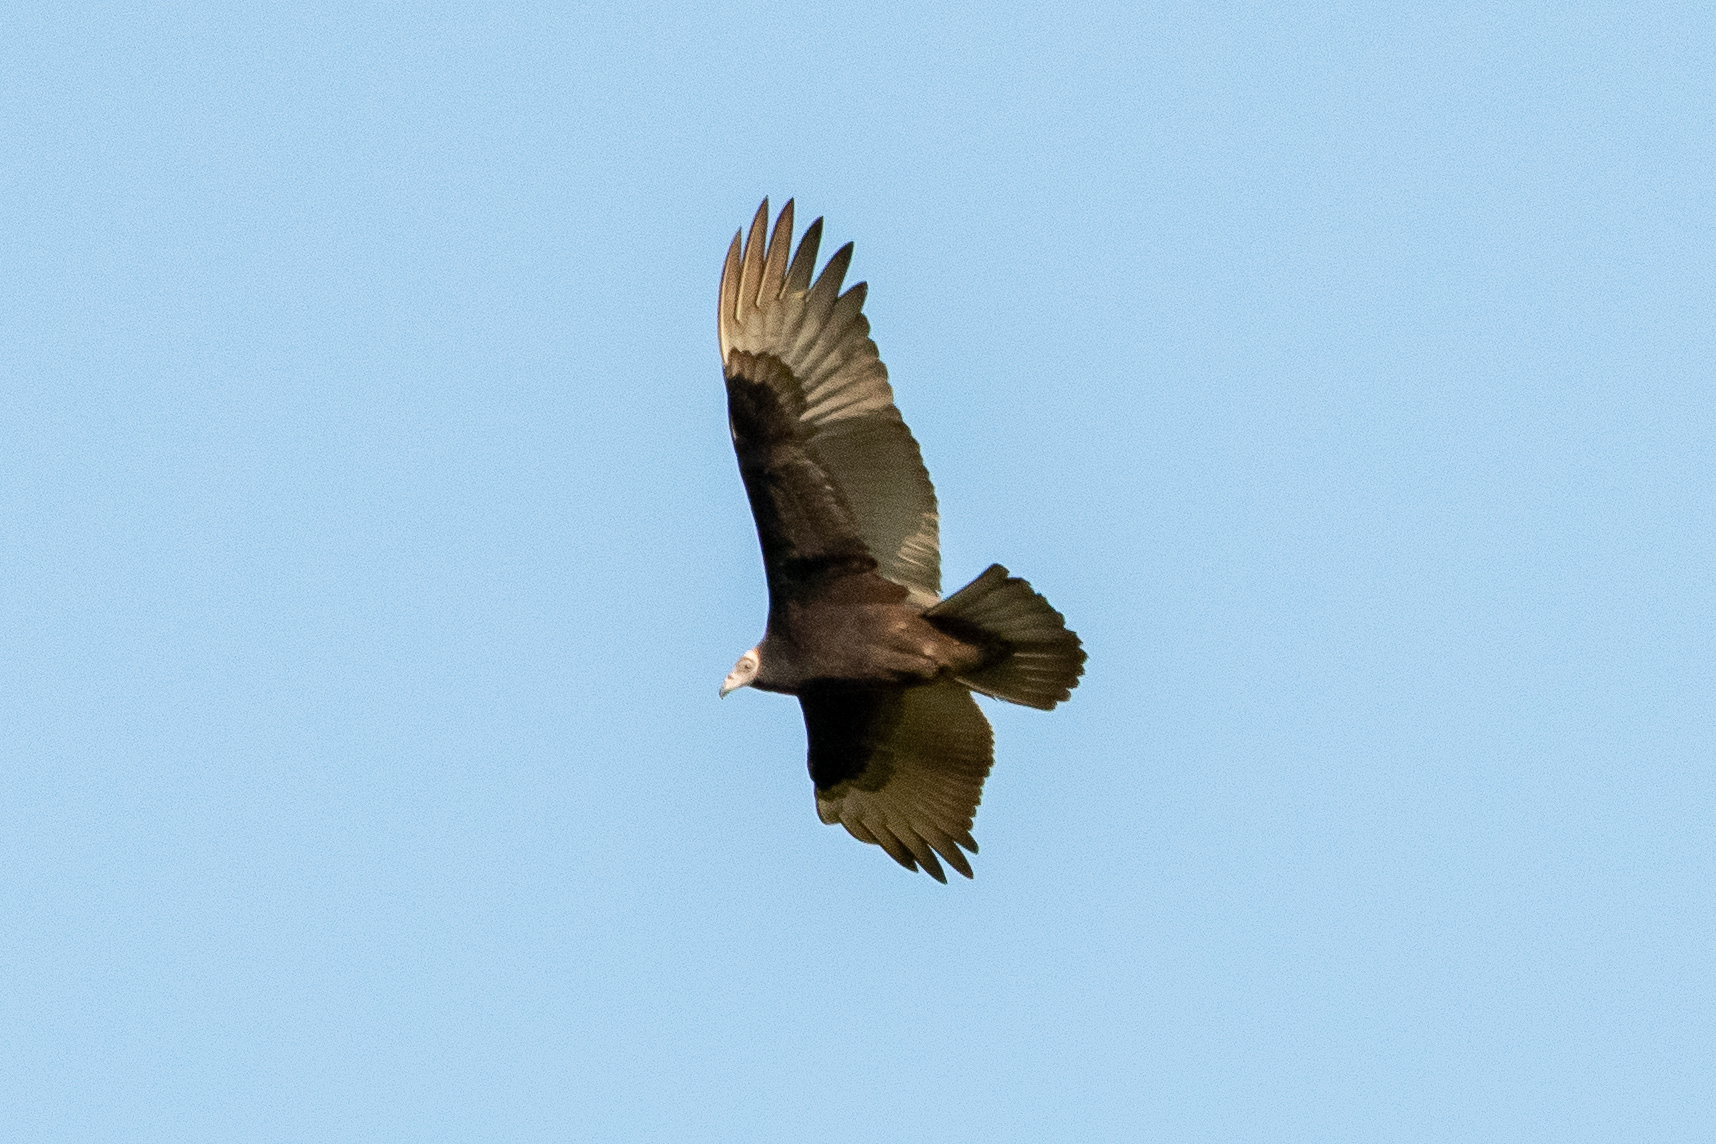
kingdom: Animalia
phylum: Chordata
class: Aves
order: Accipitriformes
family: Cathartidae
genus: Cathartes
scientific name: Cathartes aura
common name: Turkey vulture
